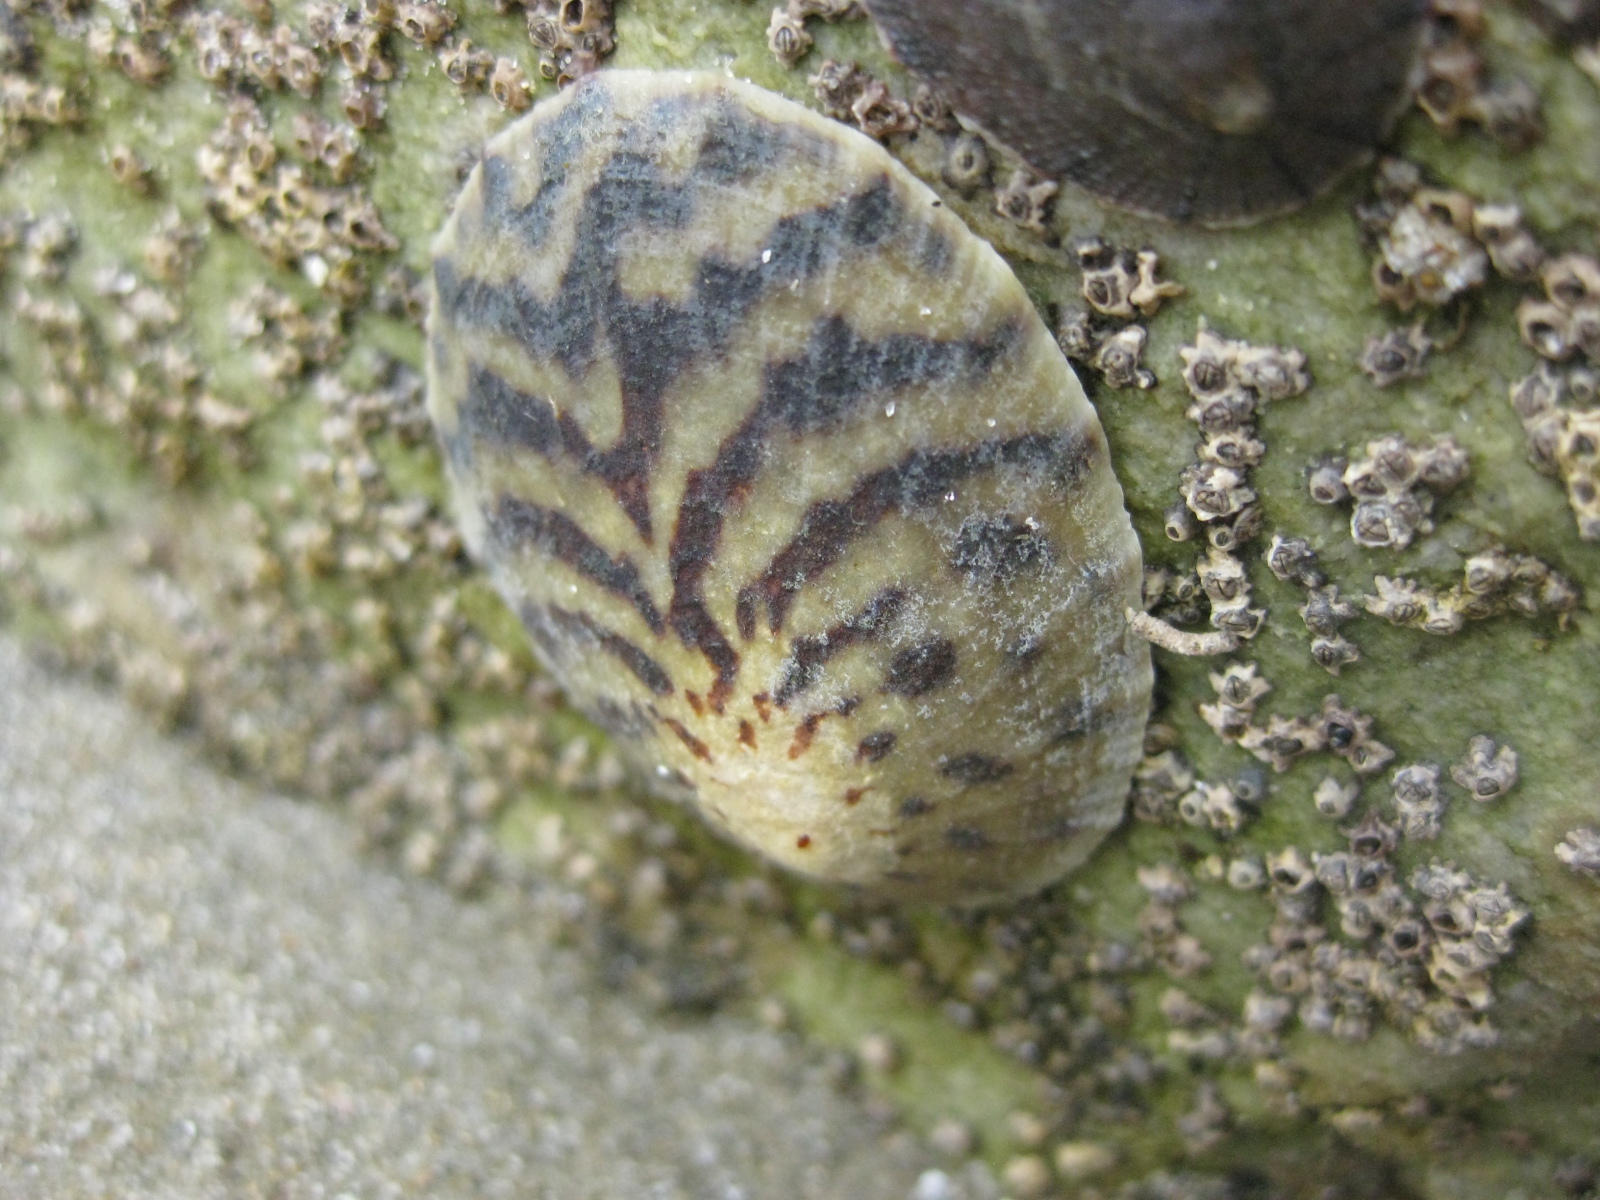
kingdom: Animalia
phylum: Mollusca
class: Gastropoda
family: Nacellidae
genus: Cellana
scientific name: Cellana radians
